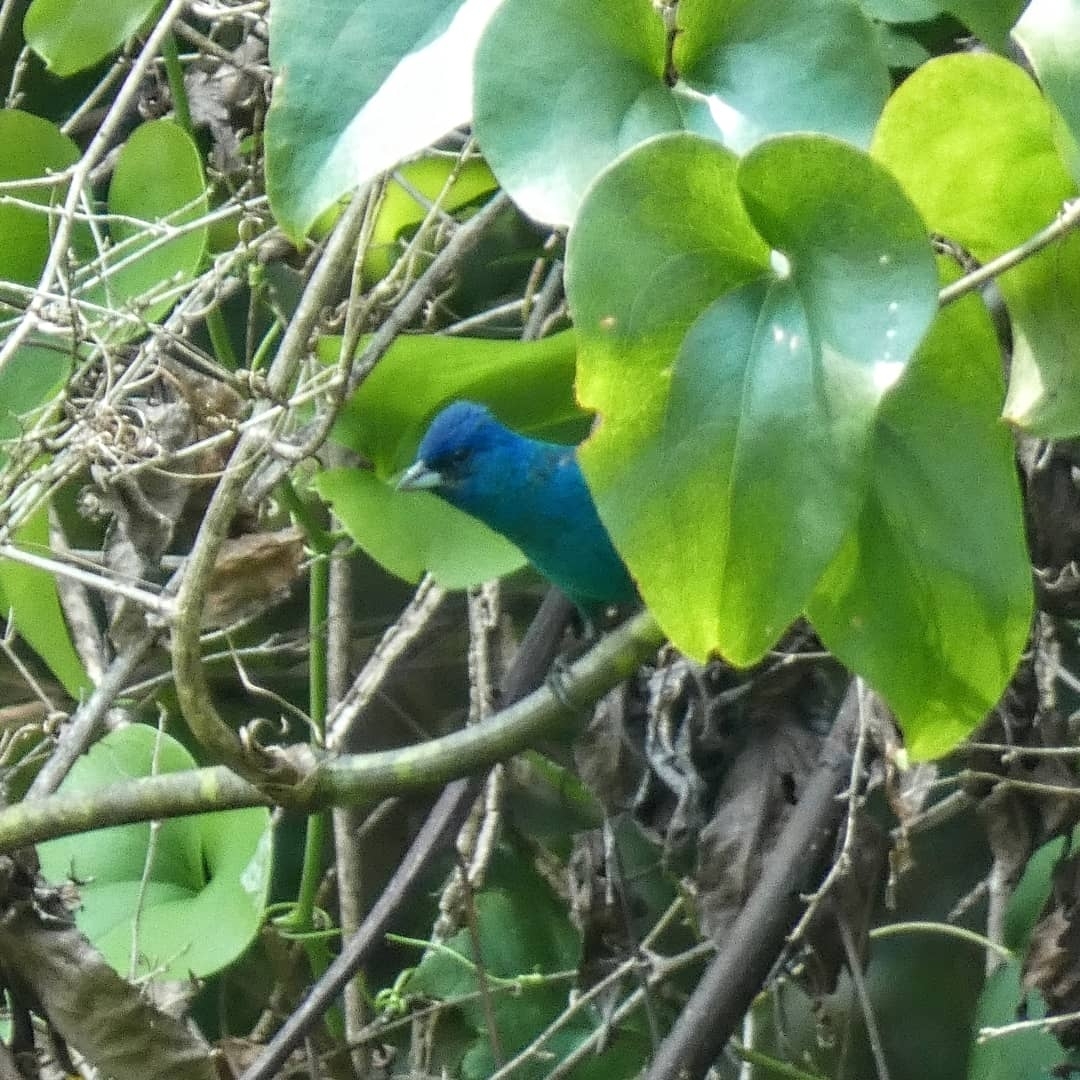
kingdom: Animalia
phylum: Chordata
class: Aves
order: Passeriformes
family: Cardinalidae
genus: Passerina
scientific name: Passerina cyanea
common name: Indigo bunting
